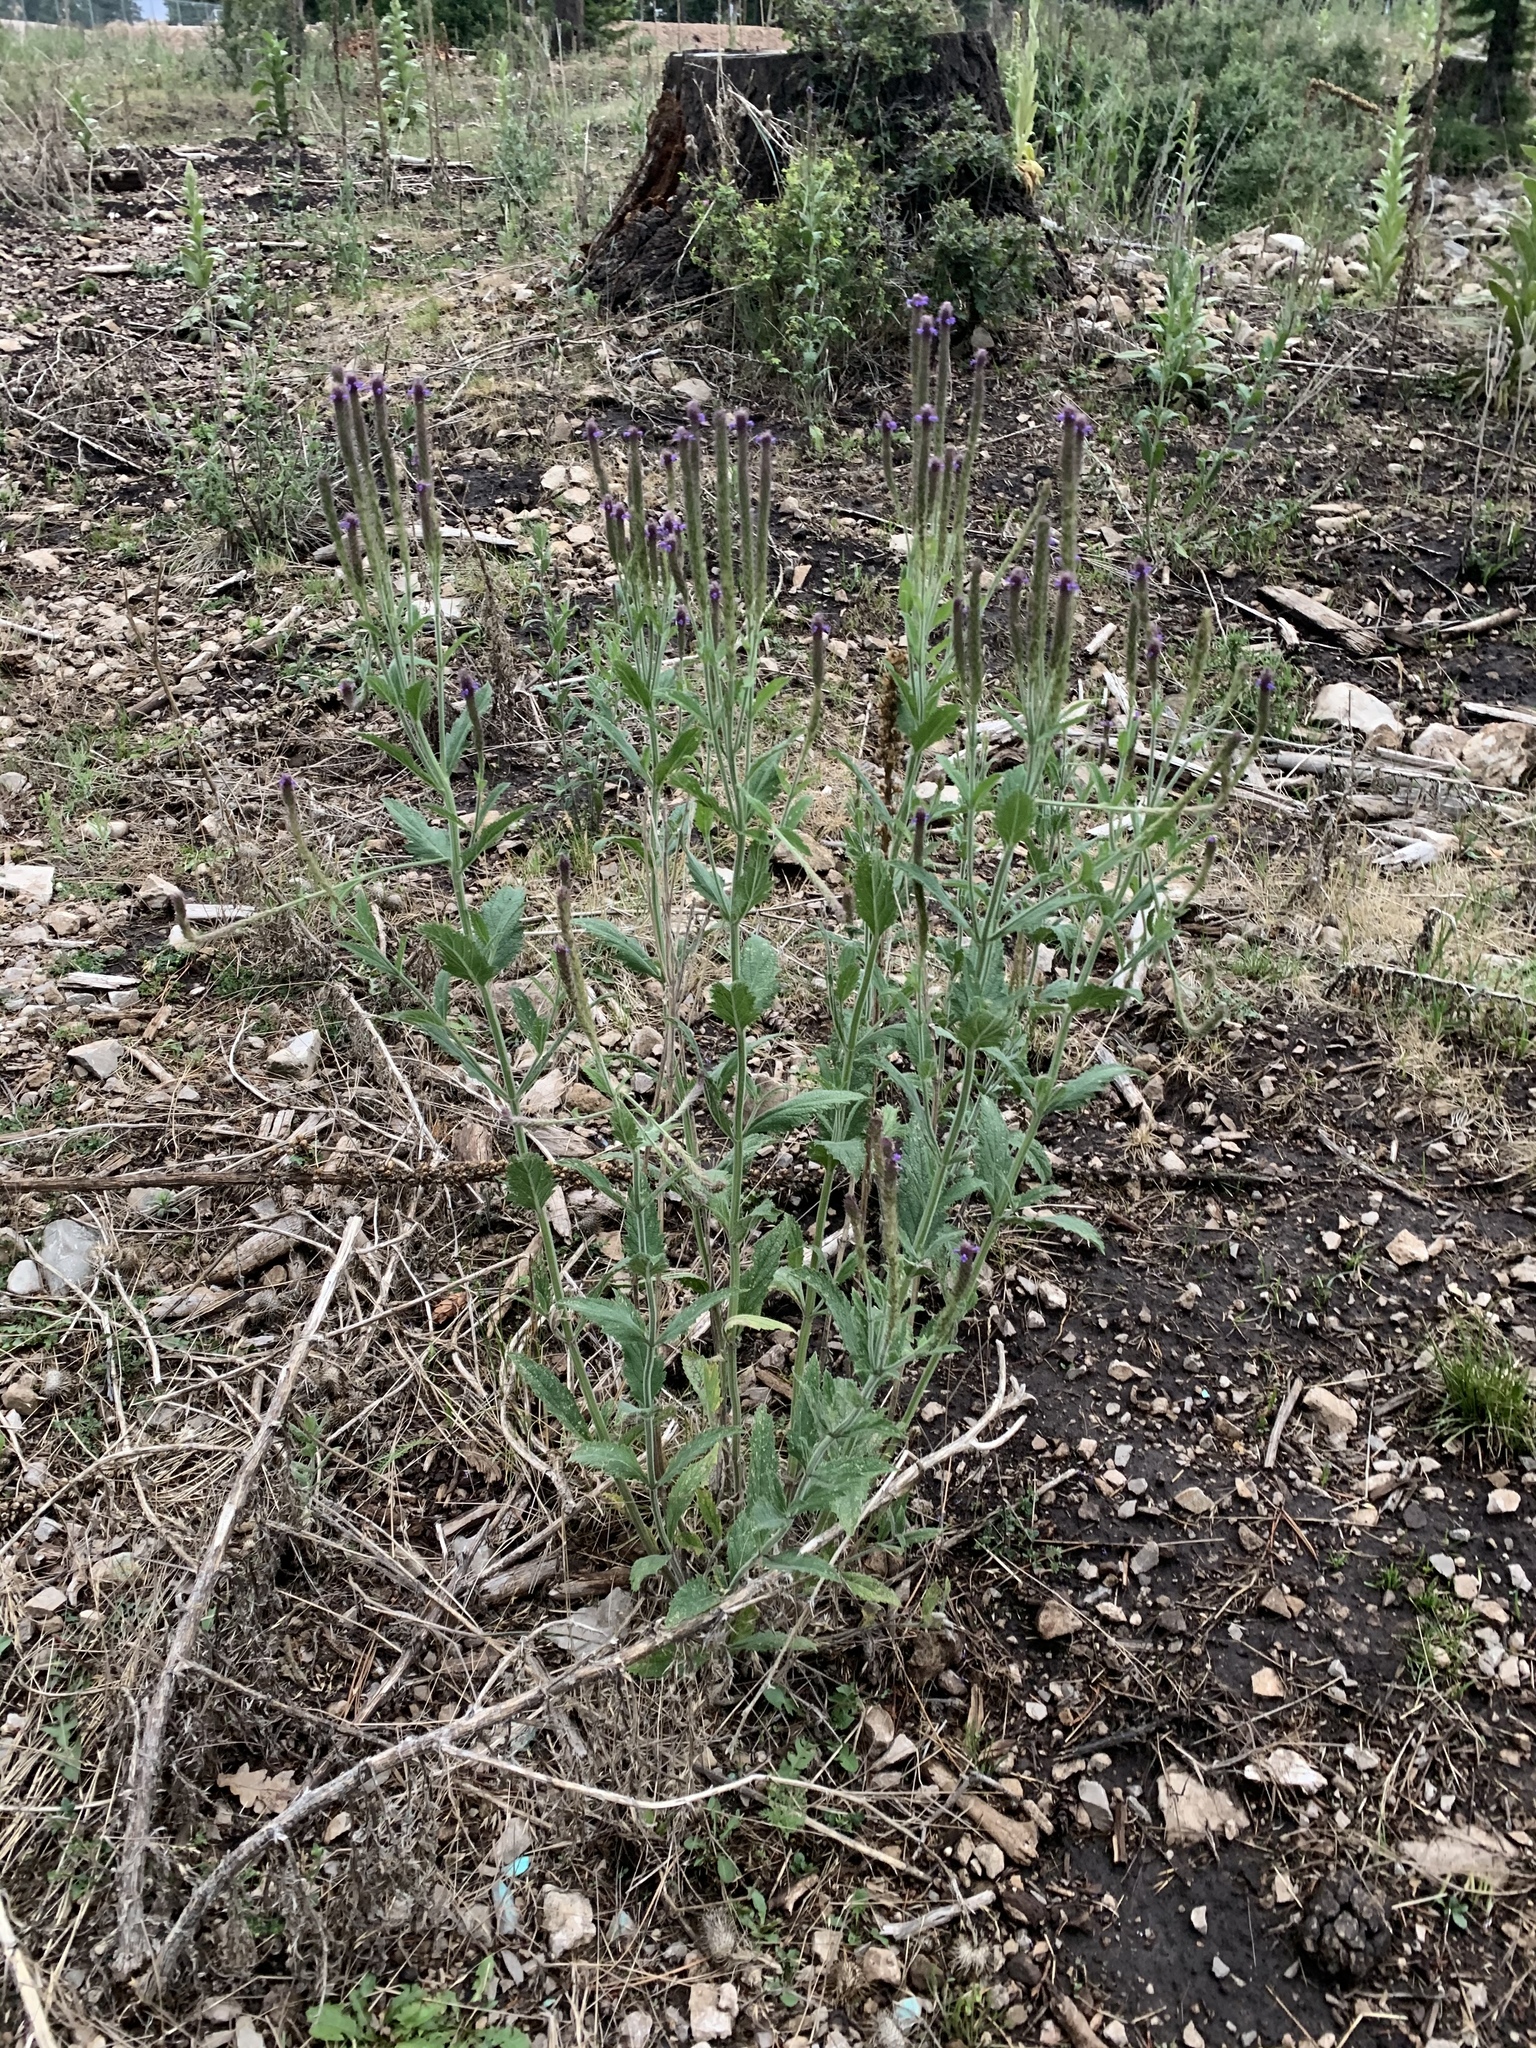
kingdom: Plantae
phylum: Tracheophyta
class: Magnoliopsida
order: Lamiales
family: Verbenaceae
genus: Verbena
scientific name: Verbena macdougalii
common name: New mexico vervain
